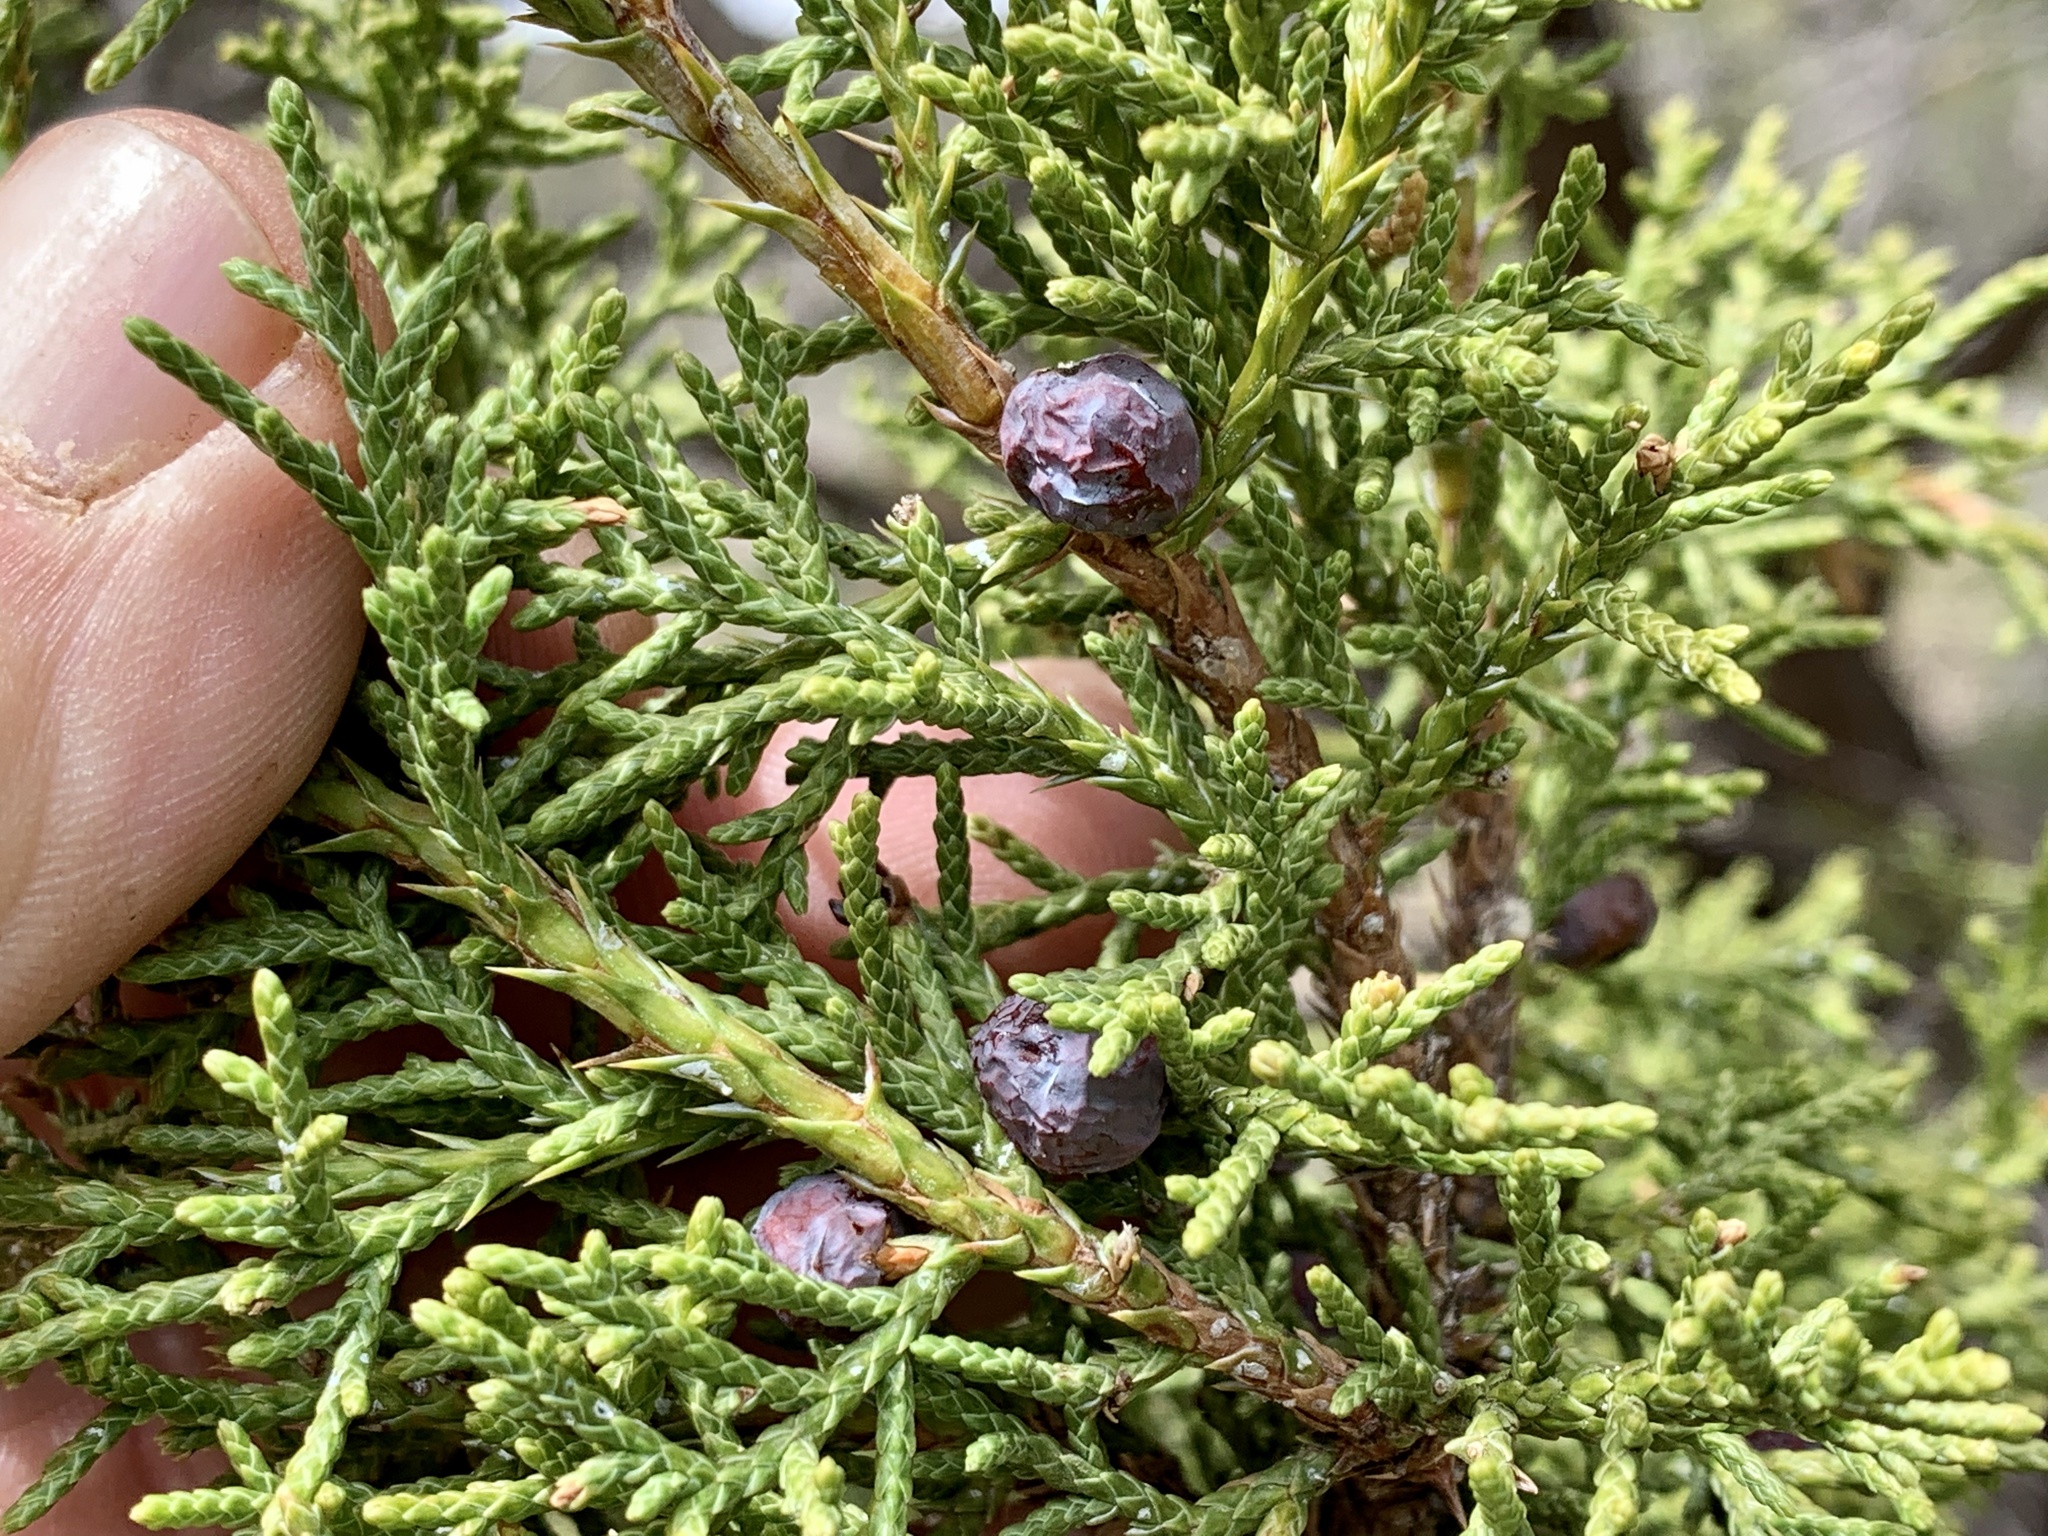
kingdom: Plantae
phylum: Tracheophyta
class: Pinopsida
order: Pinales
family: Cupressaceae
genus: Juniperus
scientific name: Juniperus monosperma
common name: One-seed juniper
